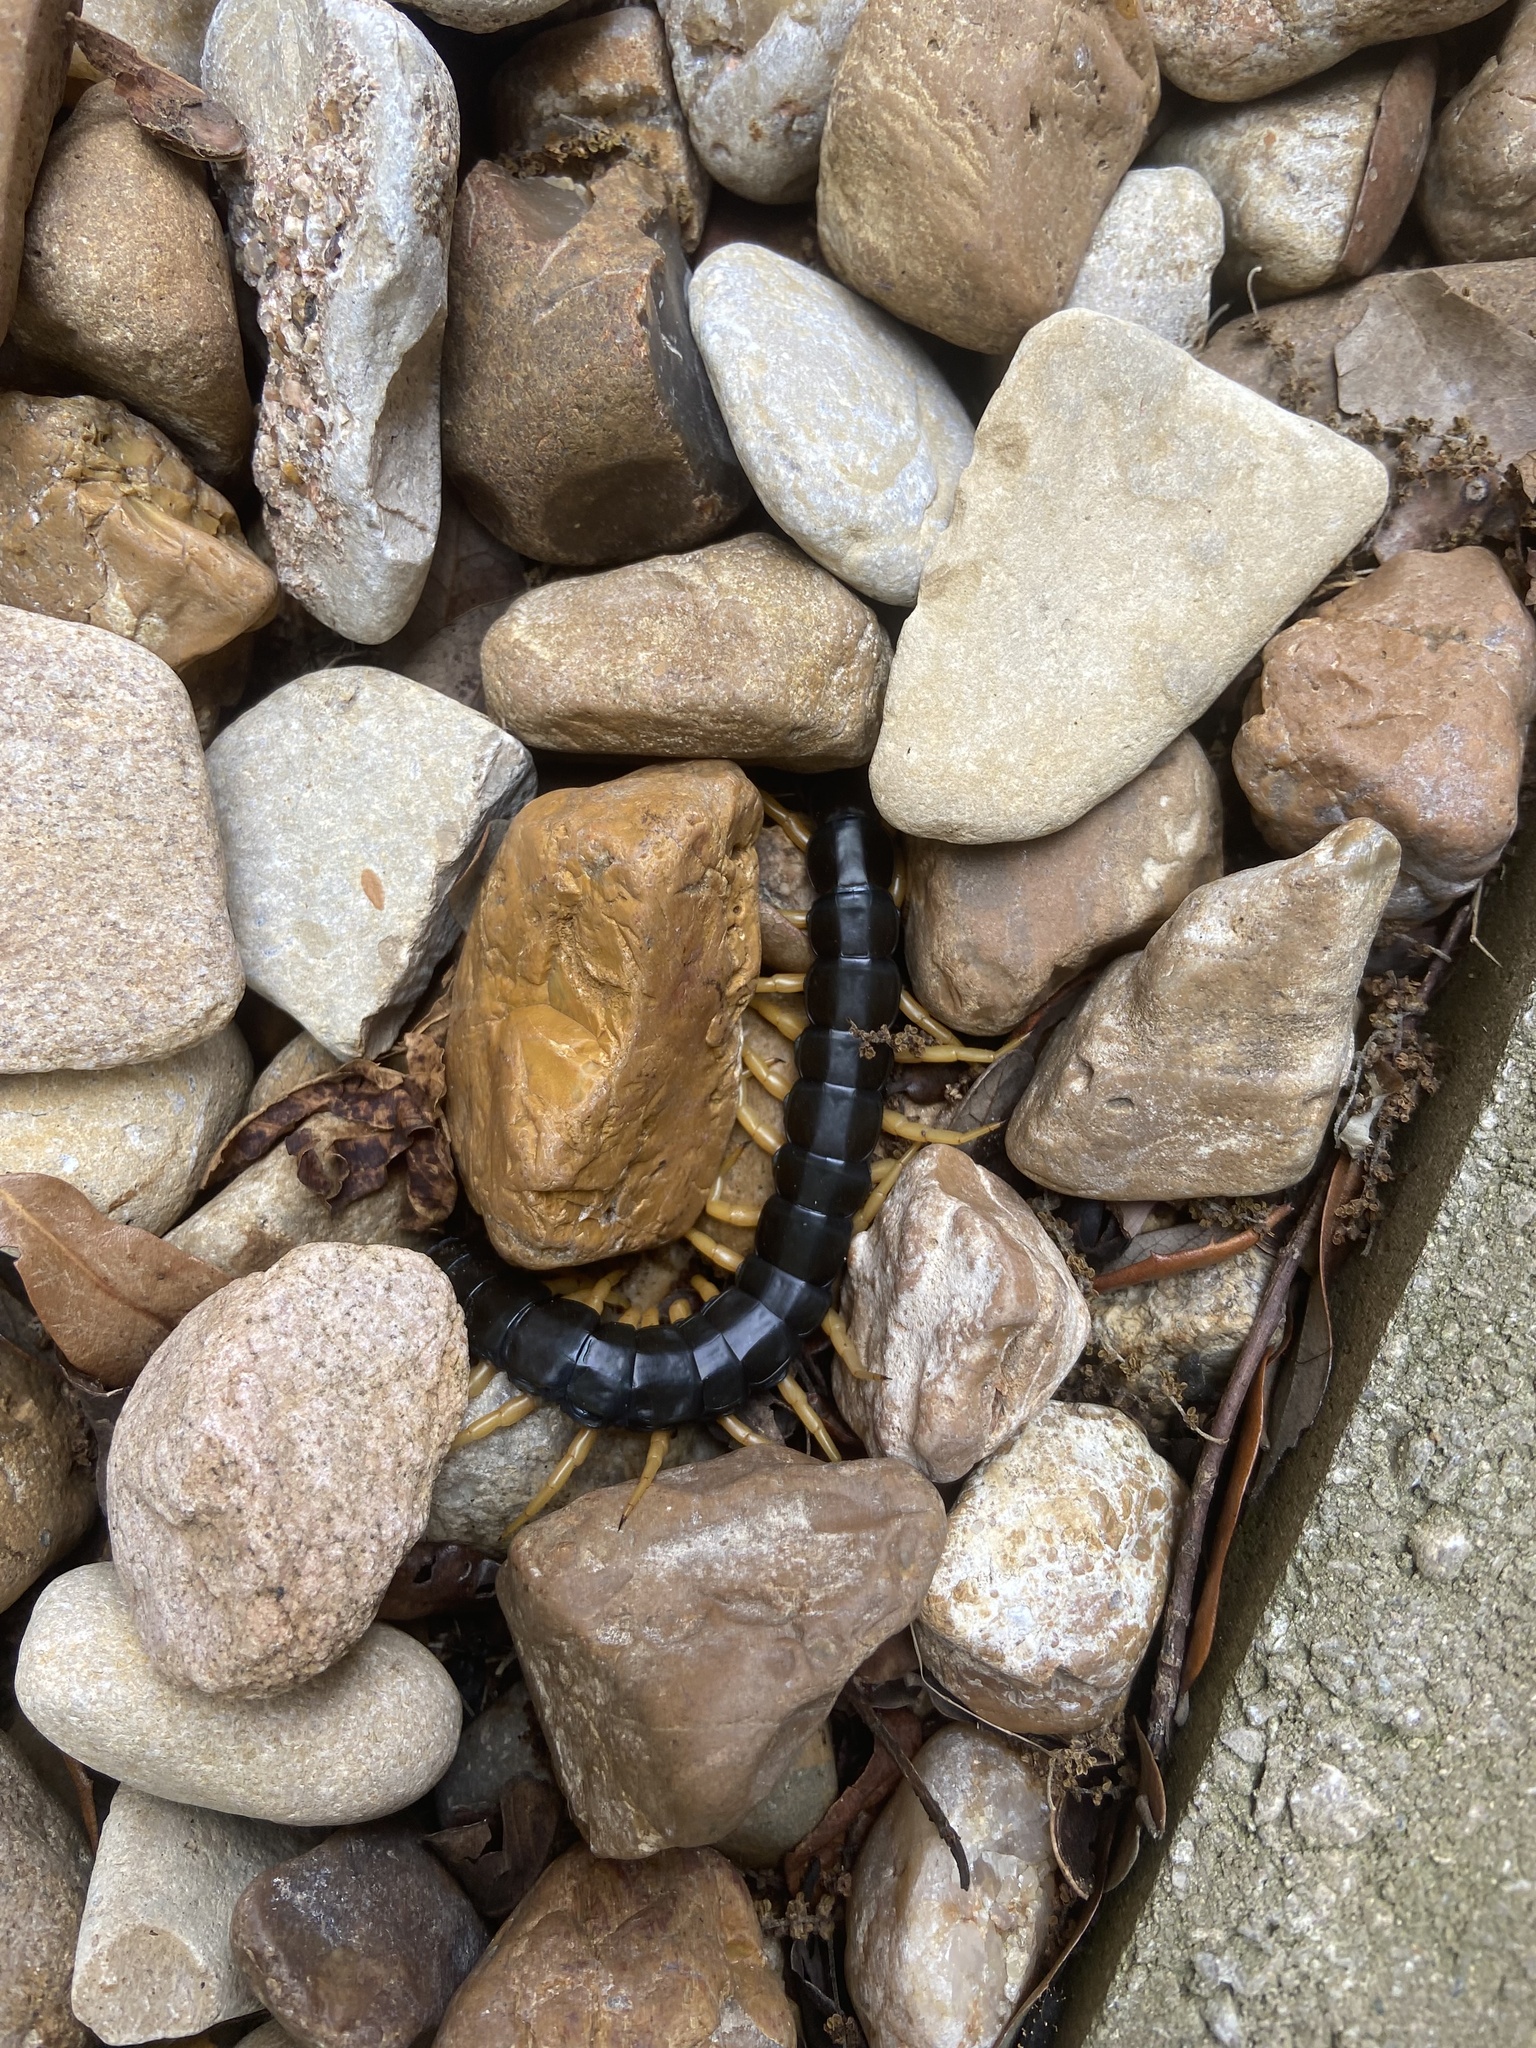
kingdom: Animalia
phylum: Arthropoda
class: Chilopoda
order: Scolopendromorpha
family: Scolopendridae
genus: Scolopendra
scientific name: Scolopendra heros
